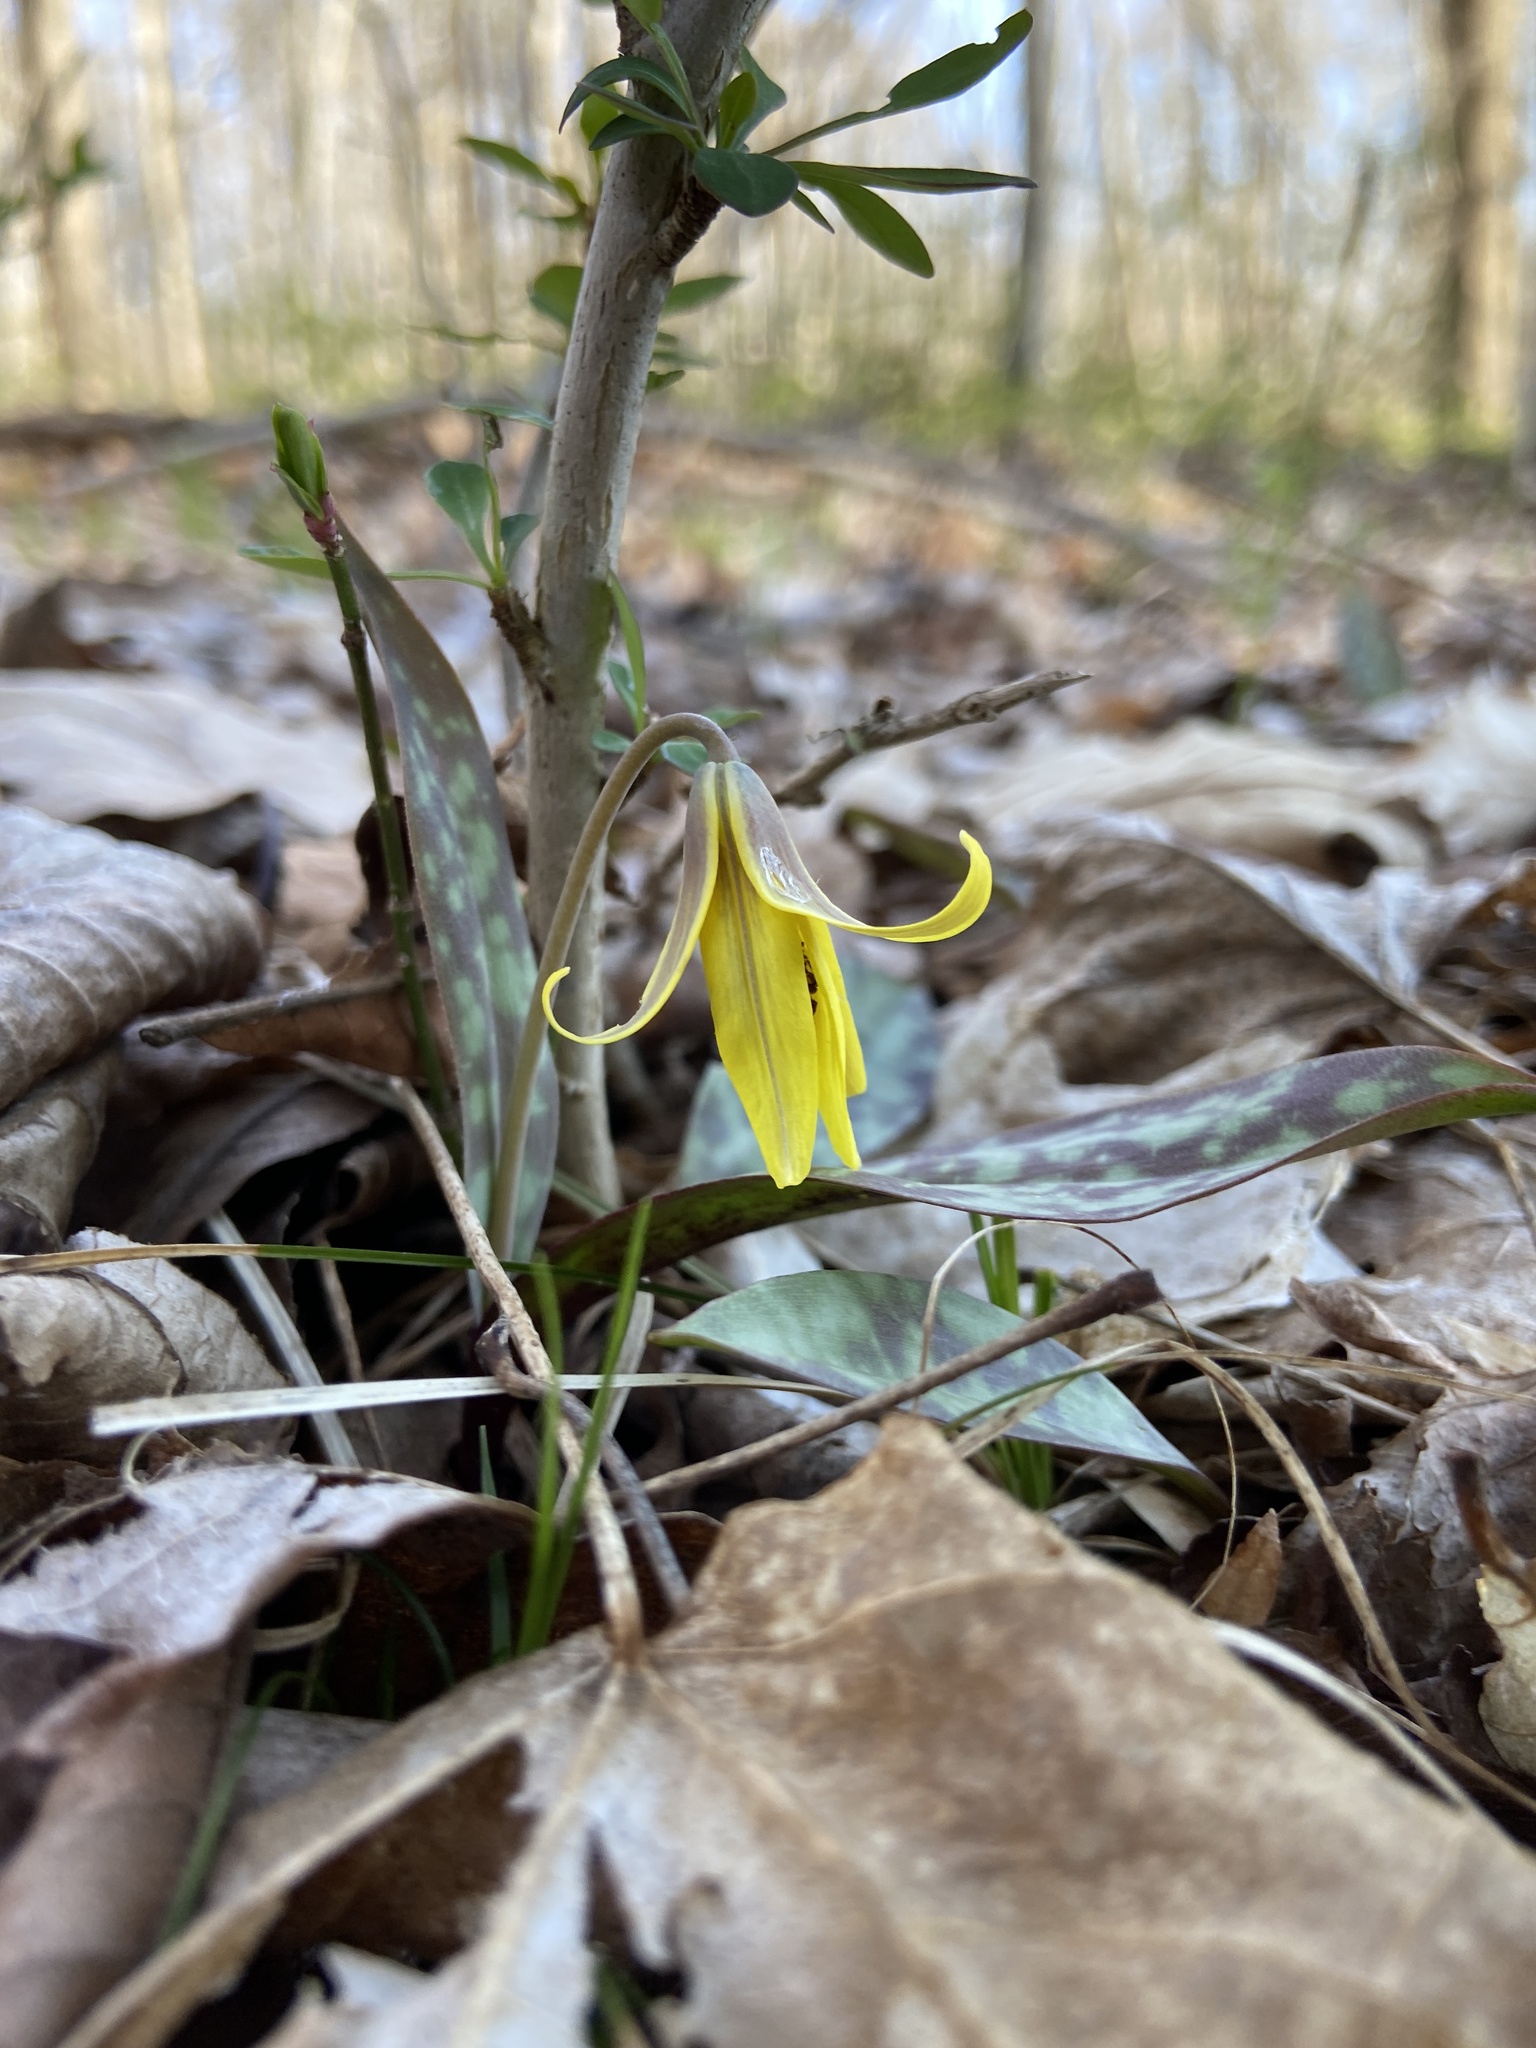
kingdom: Plantae
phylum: Tracheophyta
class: Liliopsida
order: Liliales
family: Liliaceae
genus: Erythronium
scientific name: Erythronium americanum
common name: Yellow adder's-tongue
